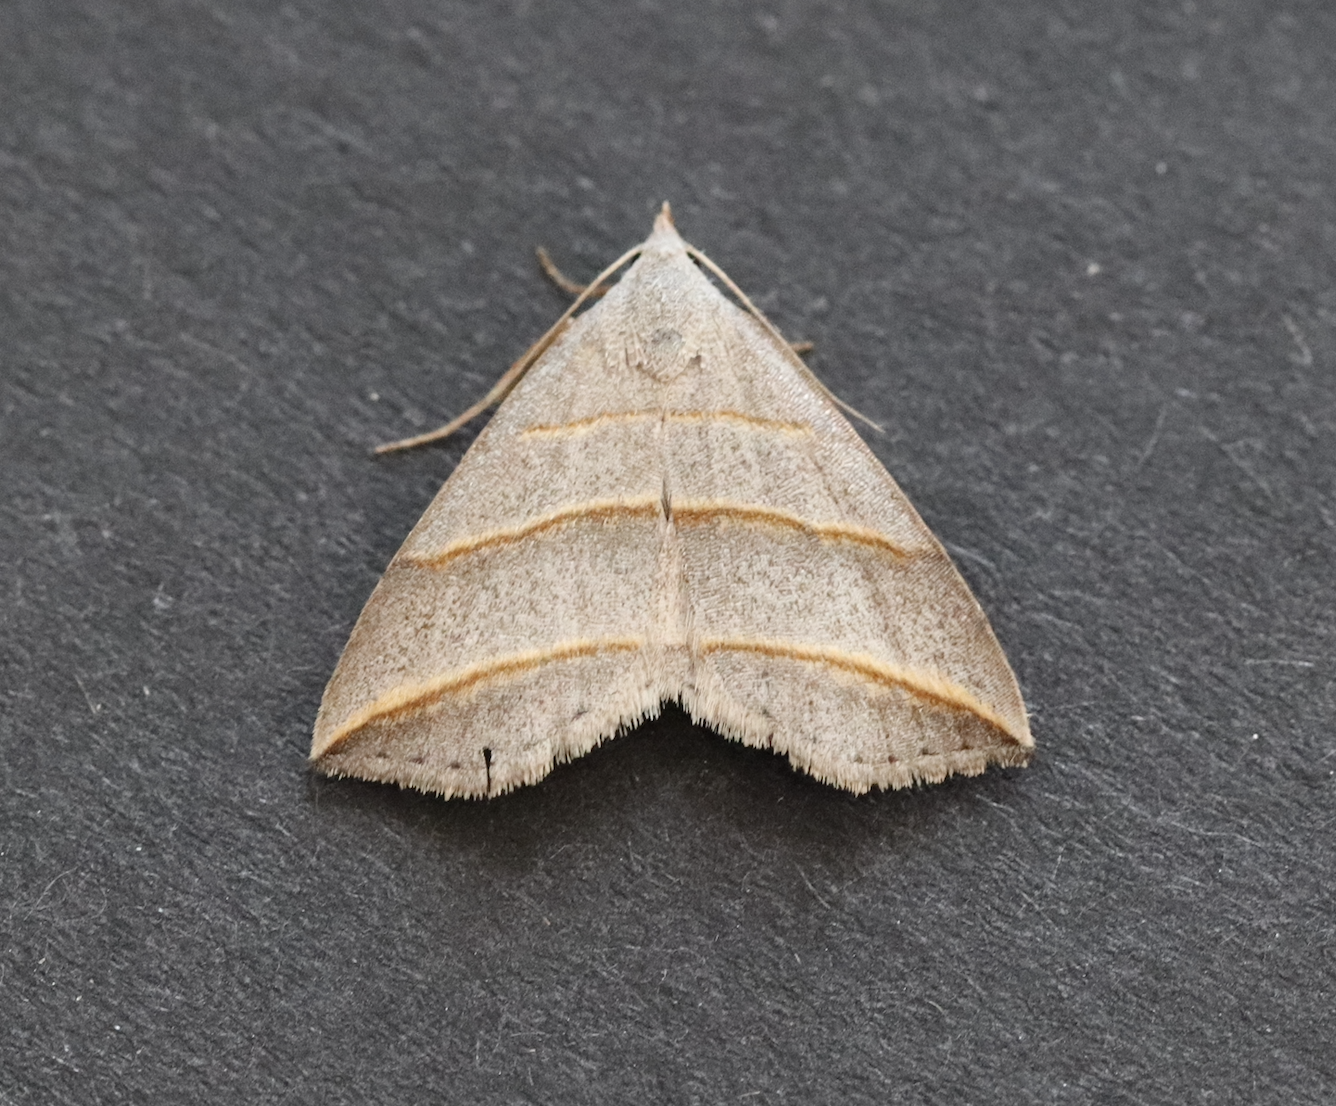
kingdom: Animalia
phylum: Arthropoda
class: Insecta
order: Lepidoptera
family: Erebidae
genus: Colobochyla
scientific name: Colobochyla salicalis
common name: Lesser belle
